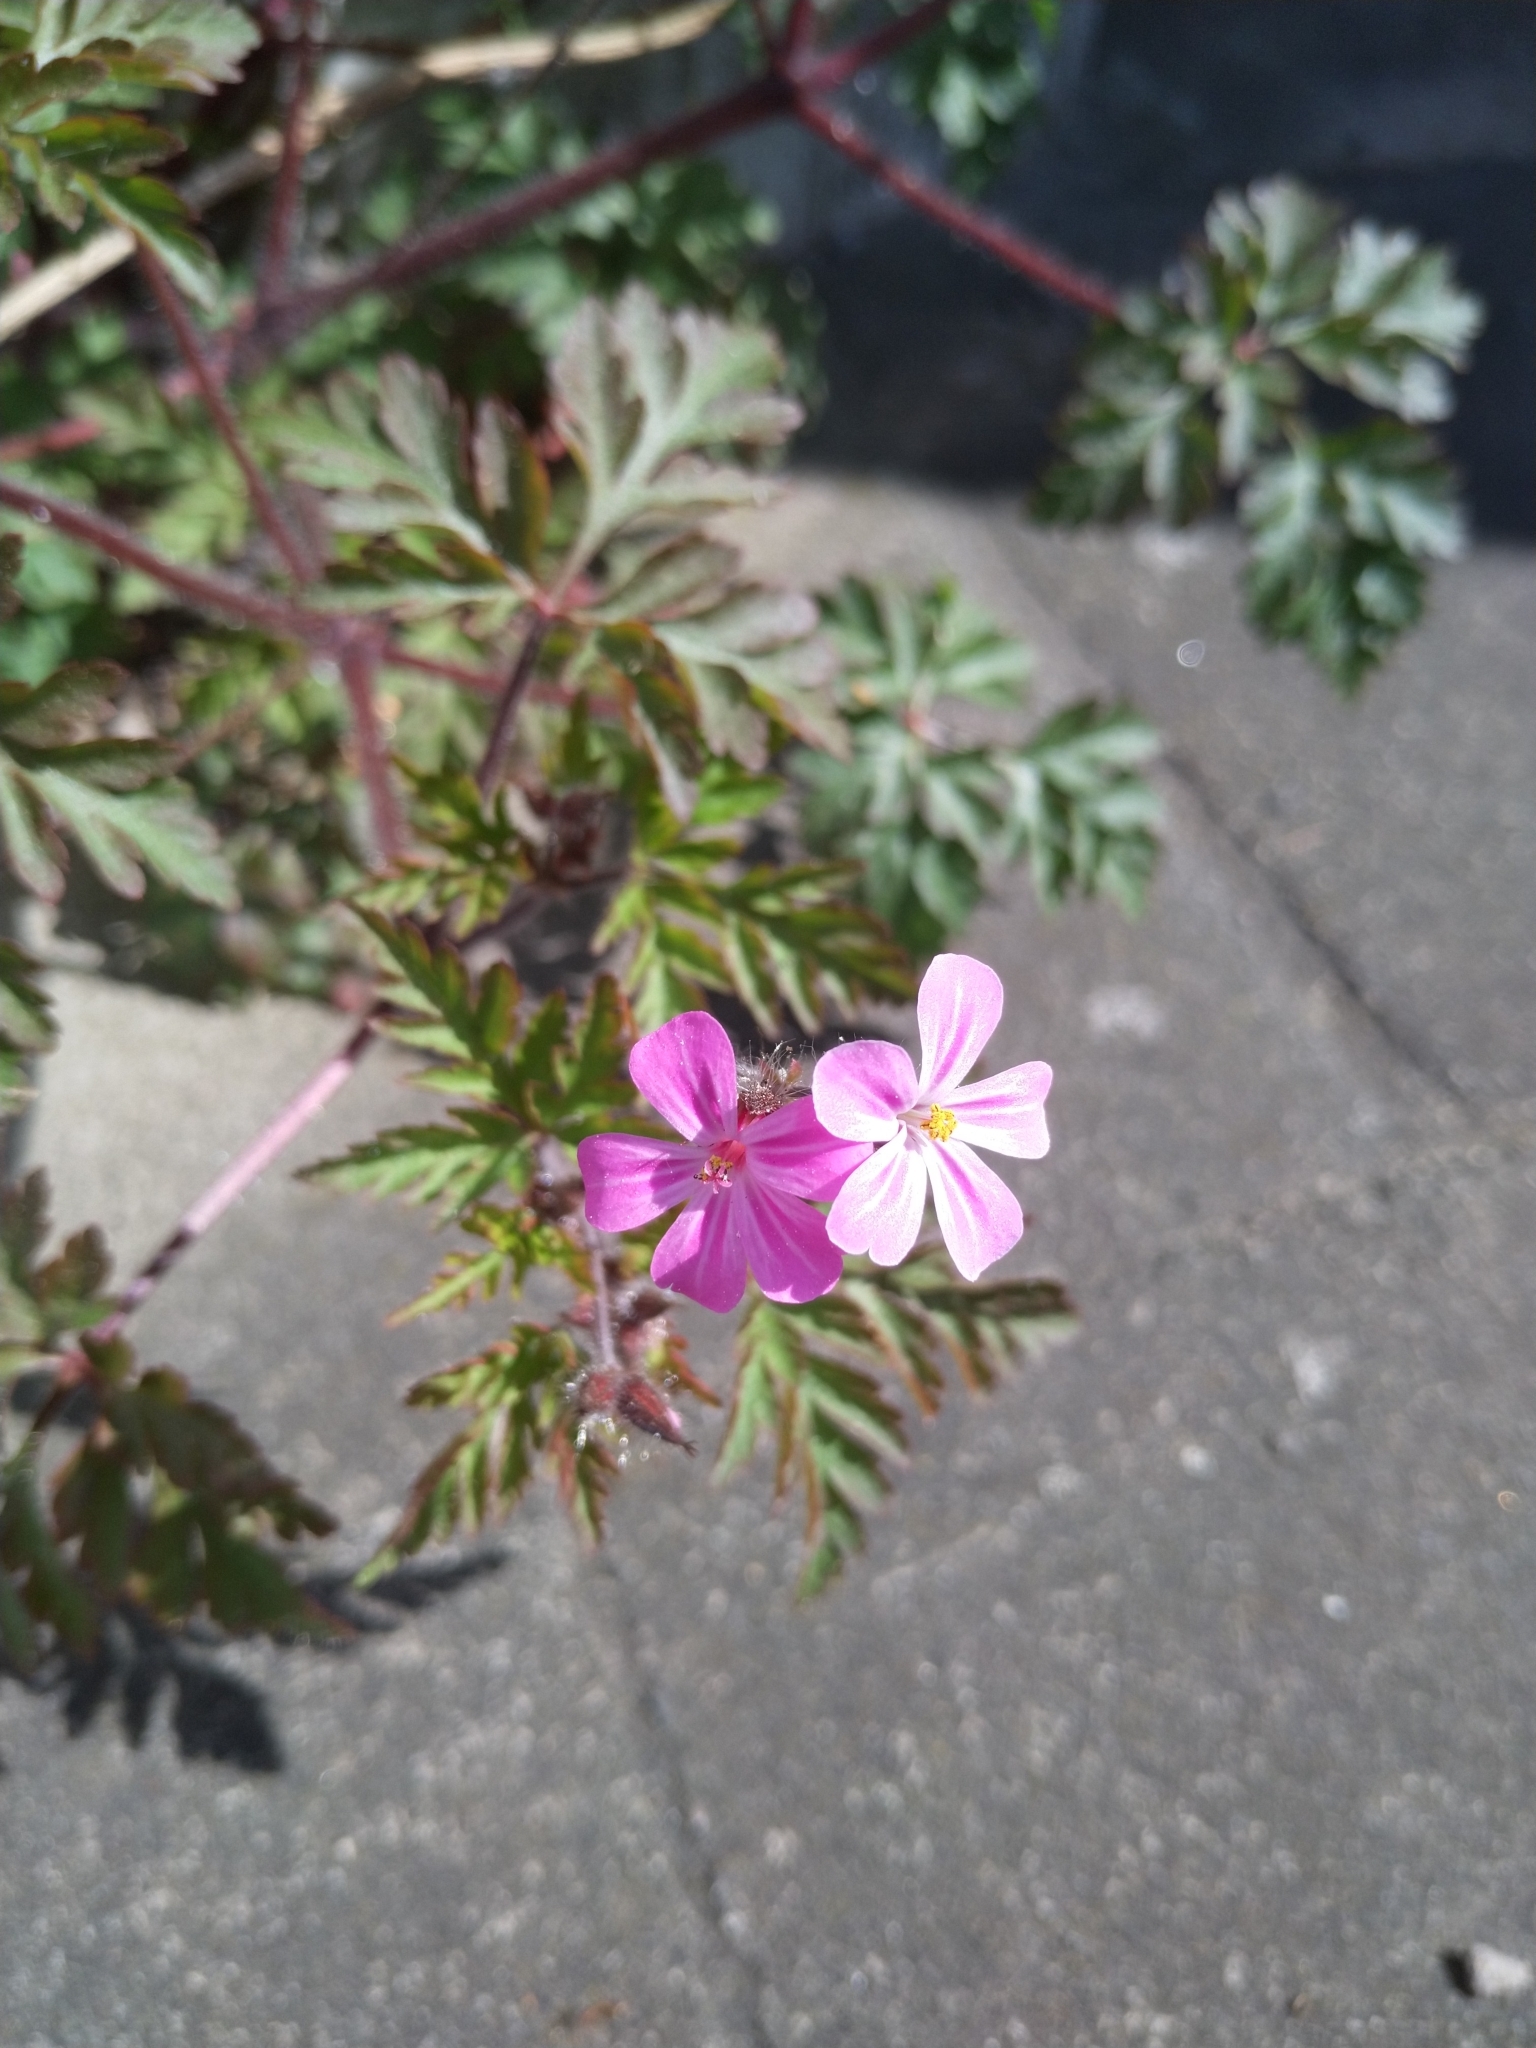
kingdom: Plantae
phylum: Tracheophyta
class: Magnoliopsida
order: Geraniales
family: Geraniaceae
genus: Geranium
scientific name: Geranium robertianum
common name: Herb-robert
